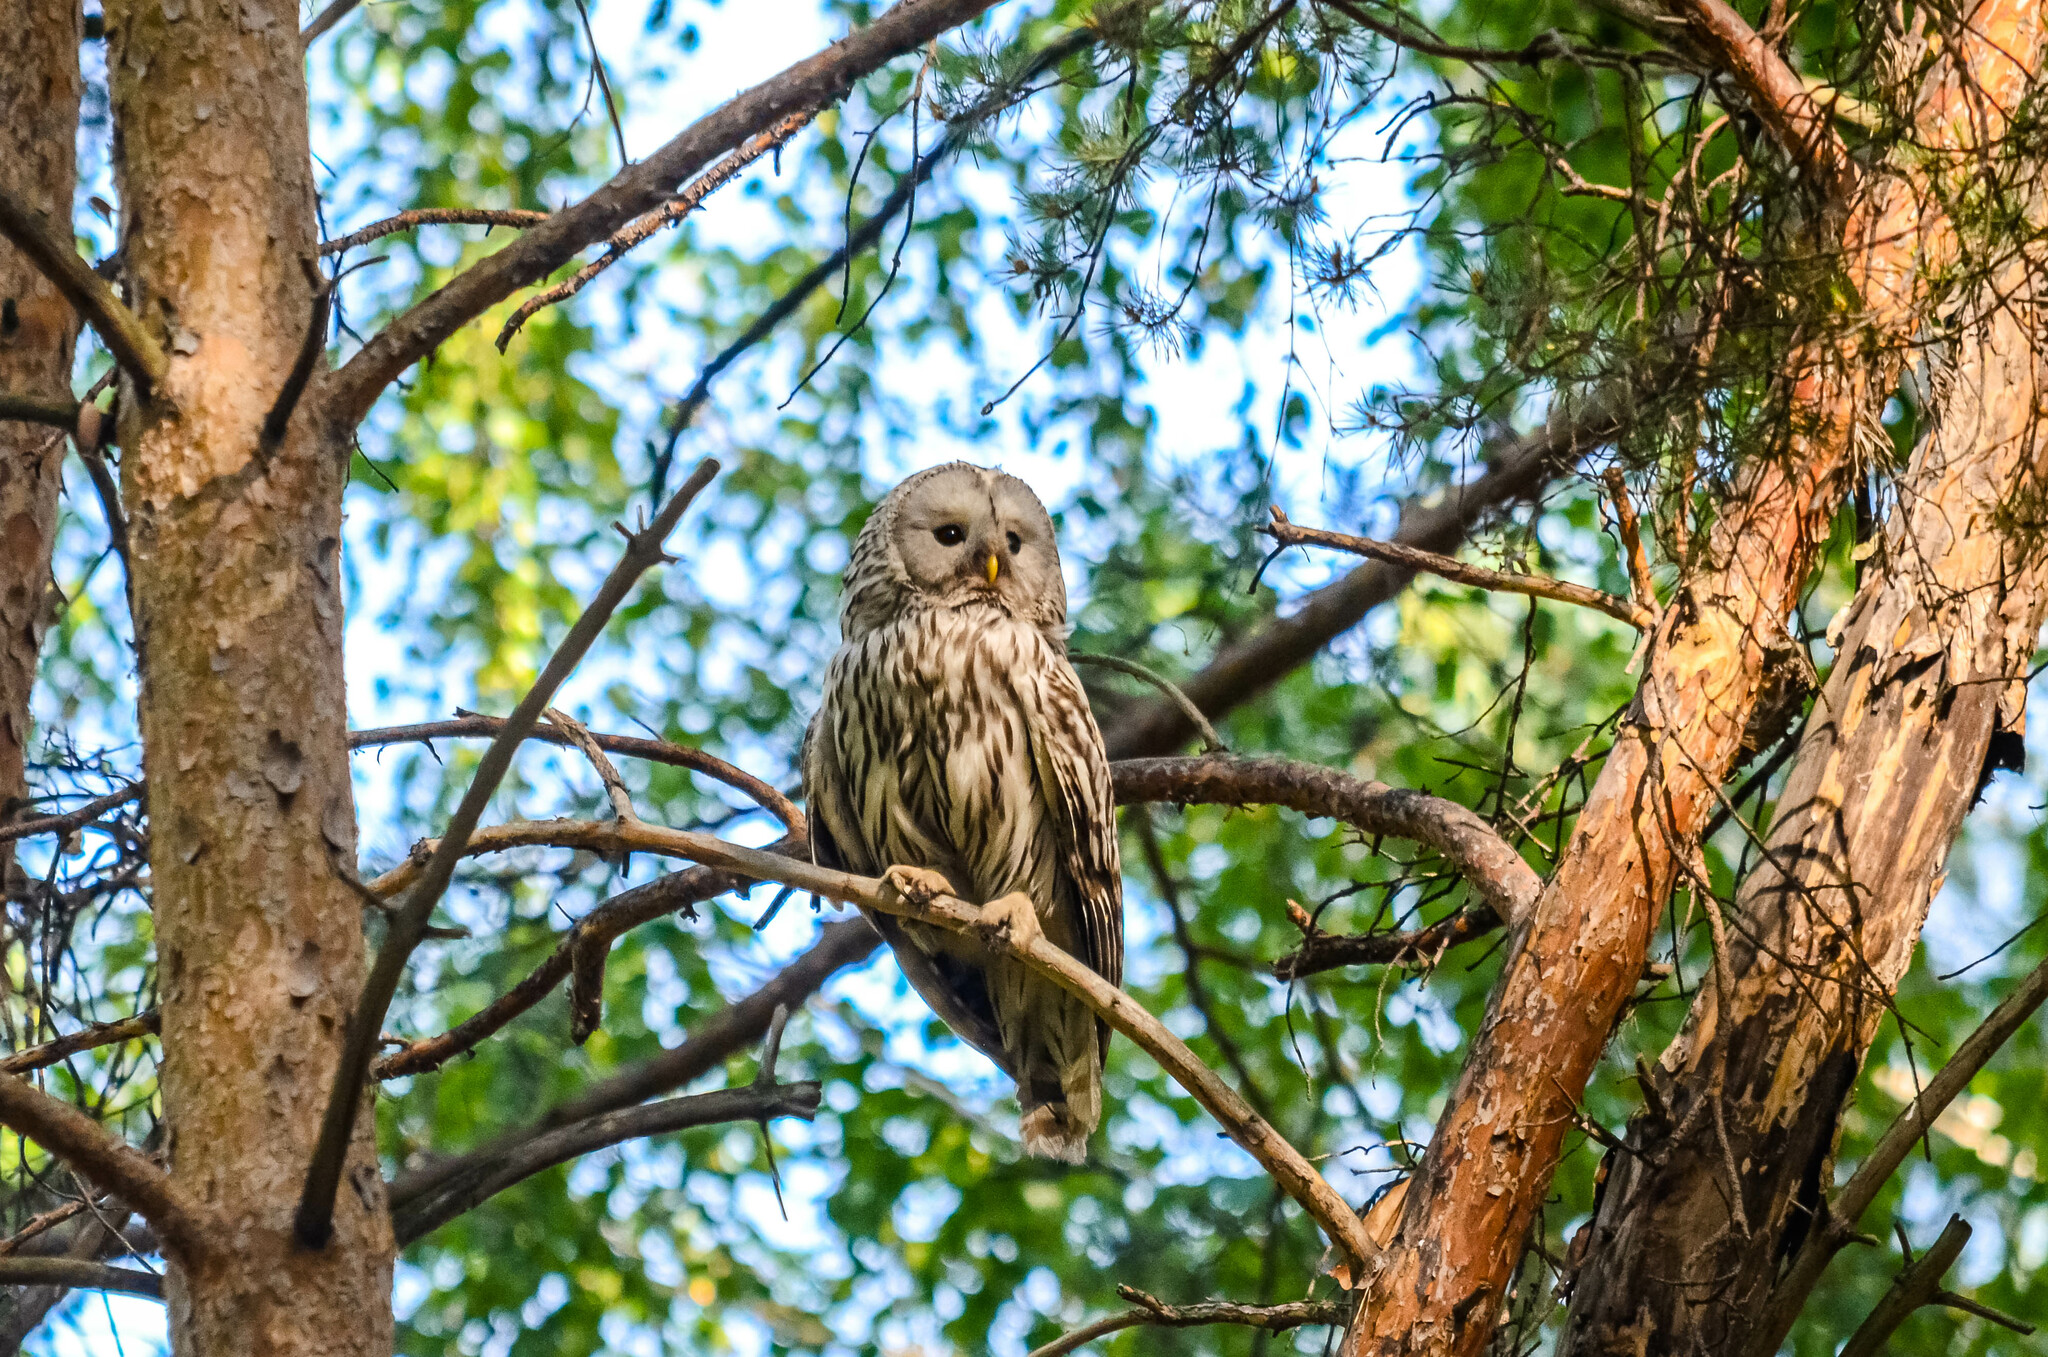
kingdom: Animalia
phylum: Chordata
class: Aves
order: Strigiformes
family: Strigidae
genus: Strix
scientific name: Strix uralensis
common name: Ural owl
